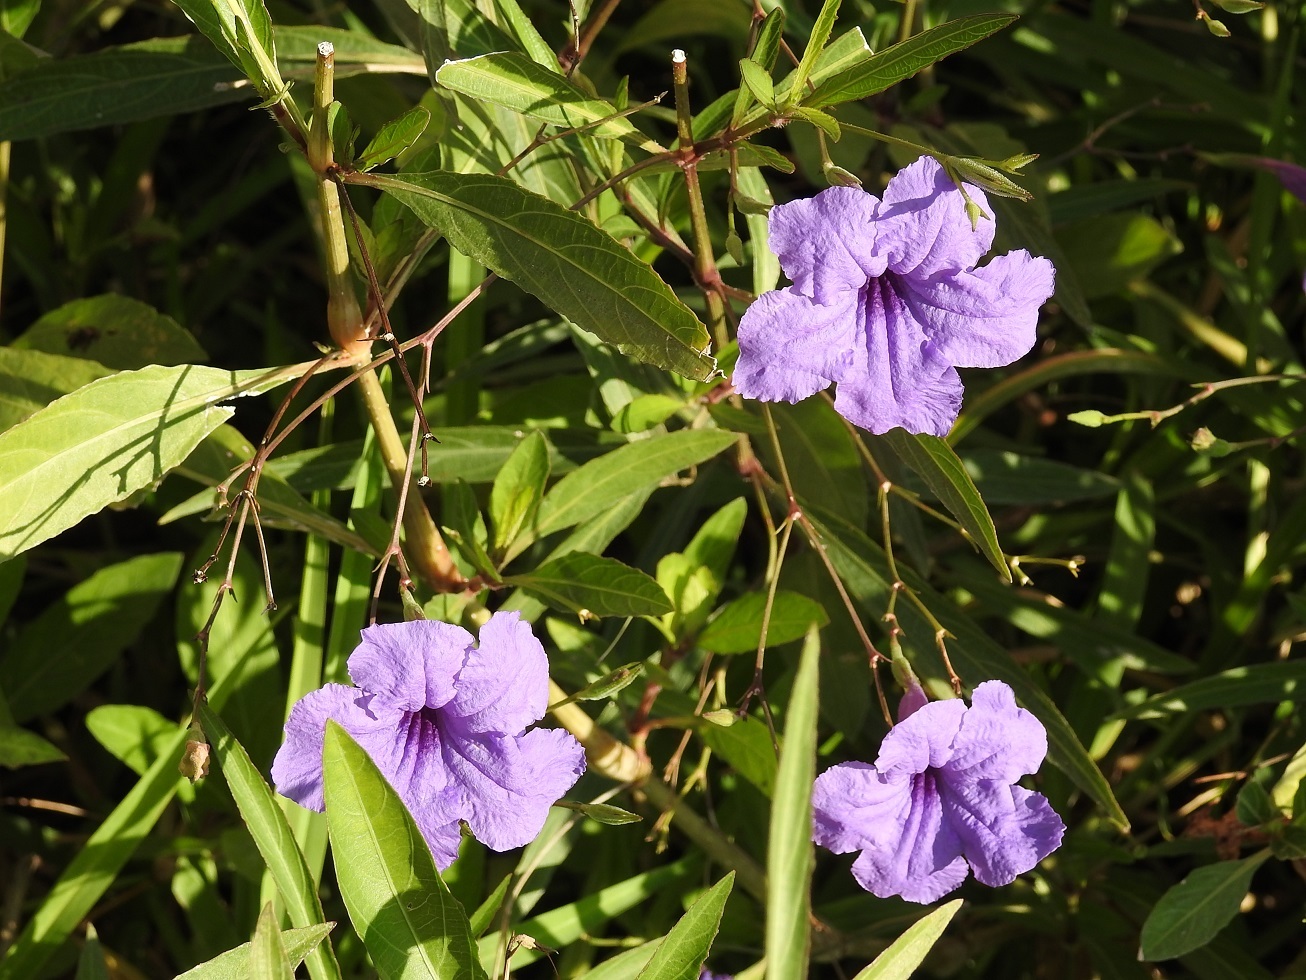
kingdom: Plantae
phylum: Tracheophyta
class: Magnoliopsida
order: Lamiales
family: Acanthaceae
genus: Ruellia
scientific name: Ruellia simplex
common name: Softseed wild petunia
